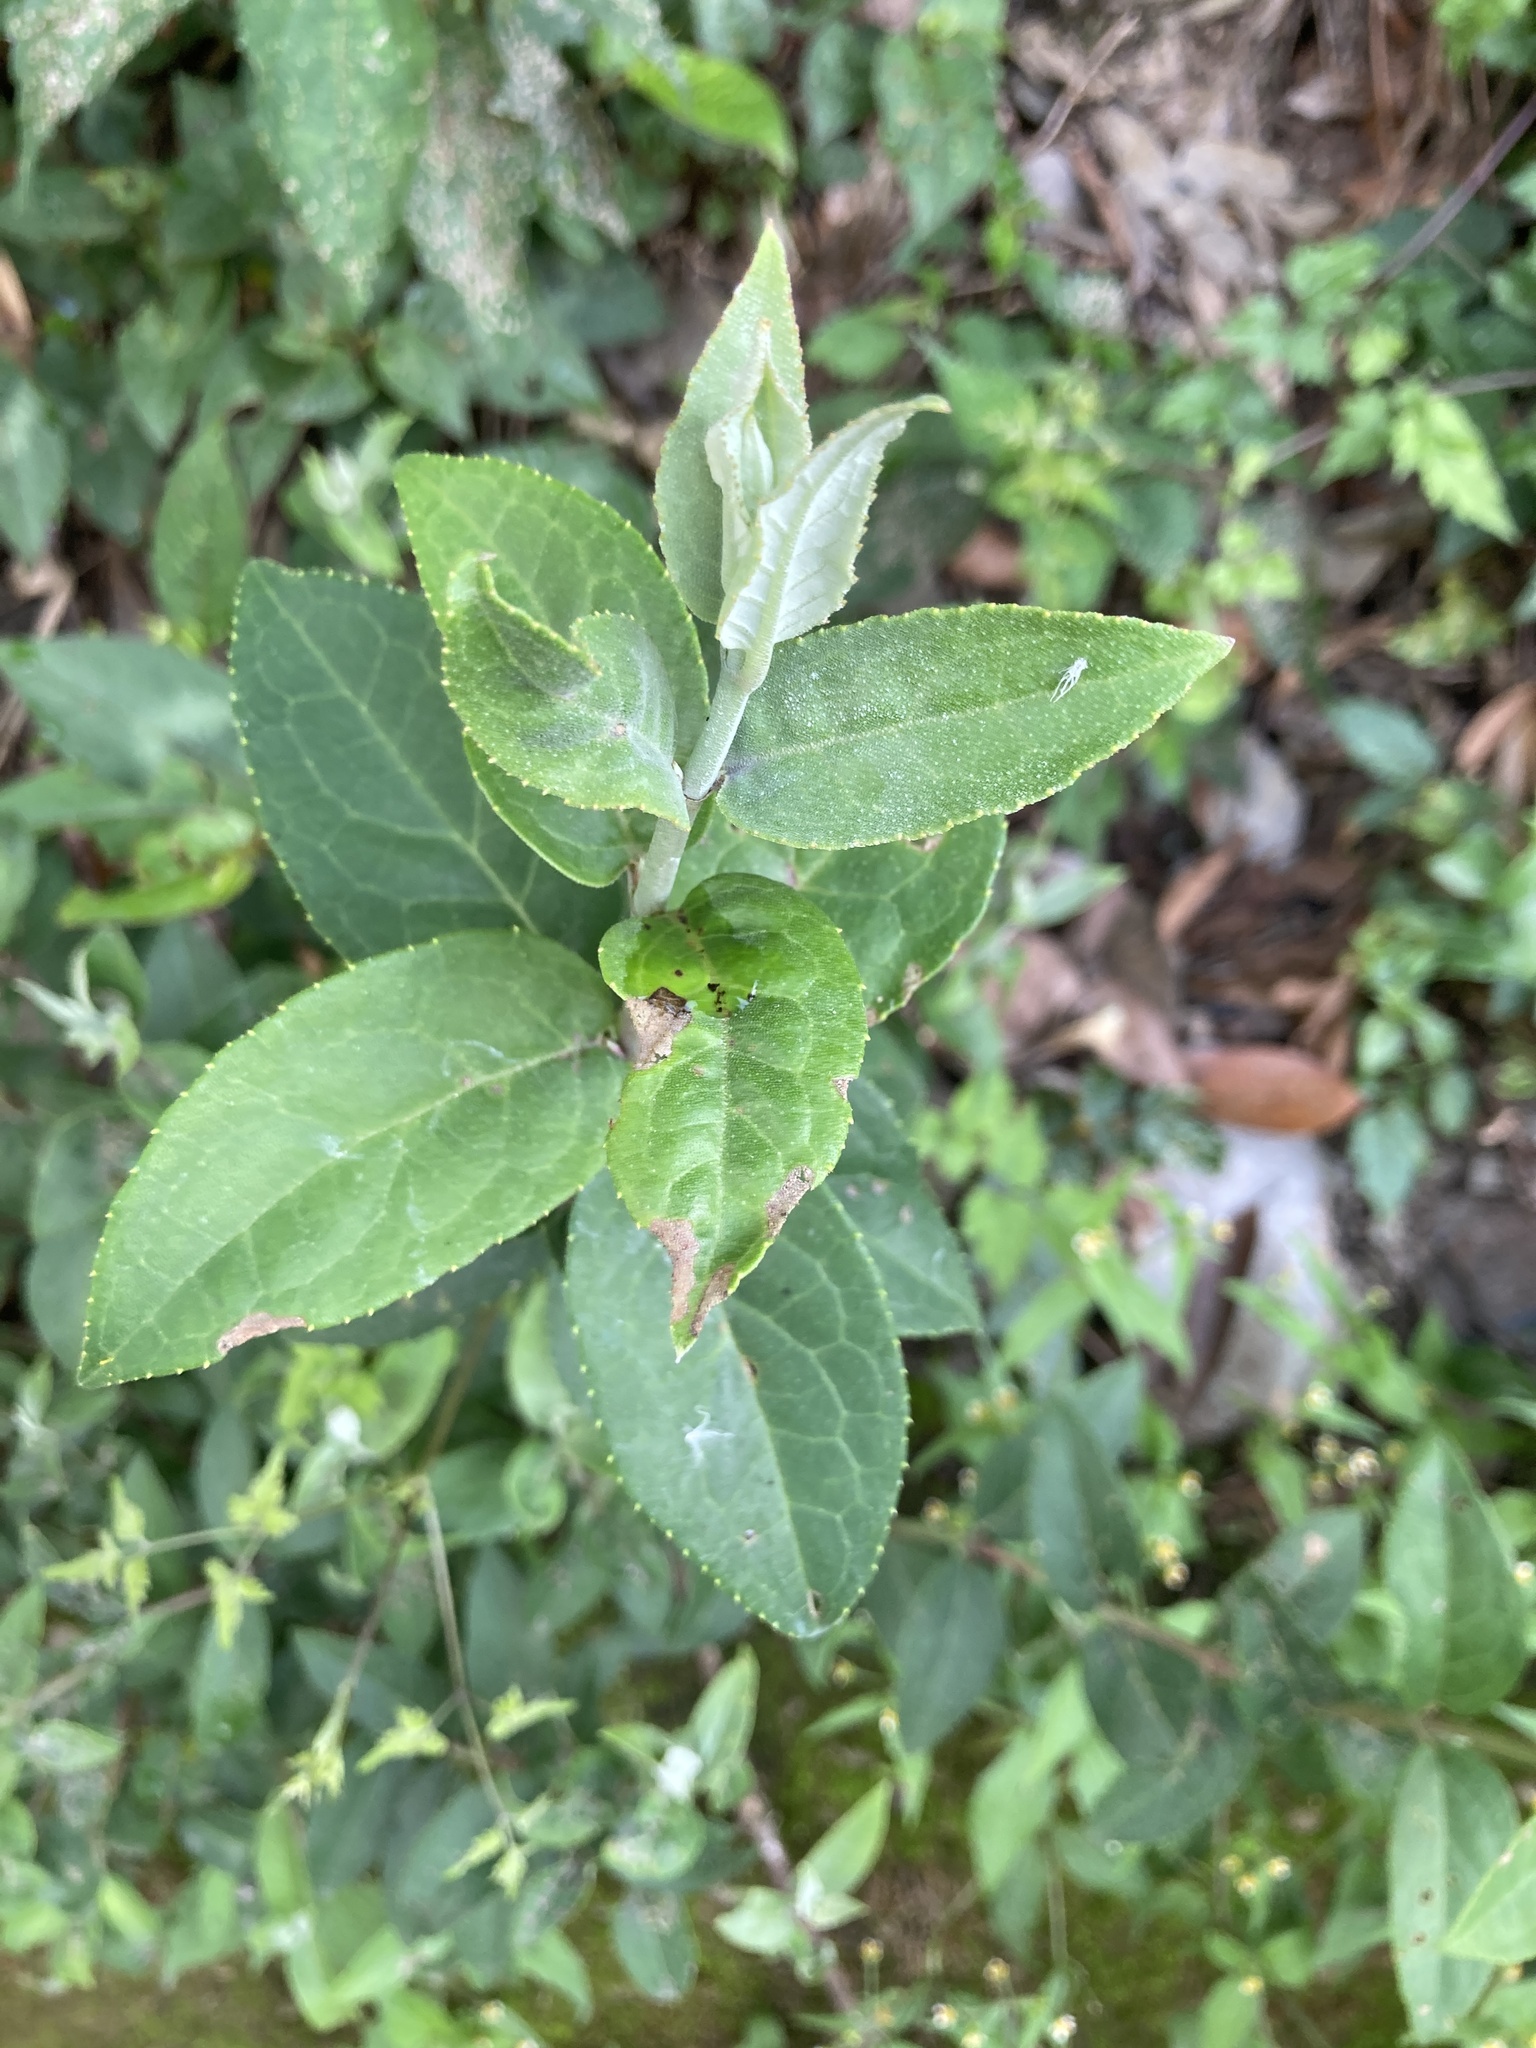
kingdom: Plantae
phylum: Tracheophyta
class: Magnoliopsida
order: Cornales
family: Hydrangeaceae
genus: Deutzia
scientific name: Deutzia pulchra
